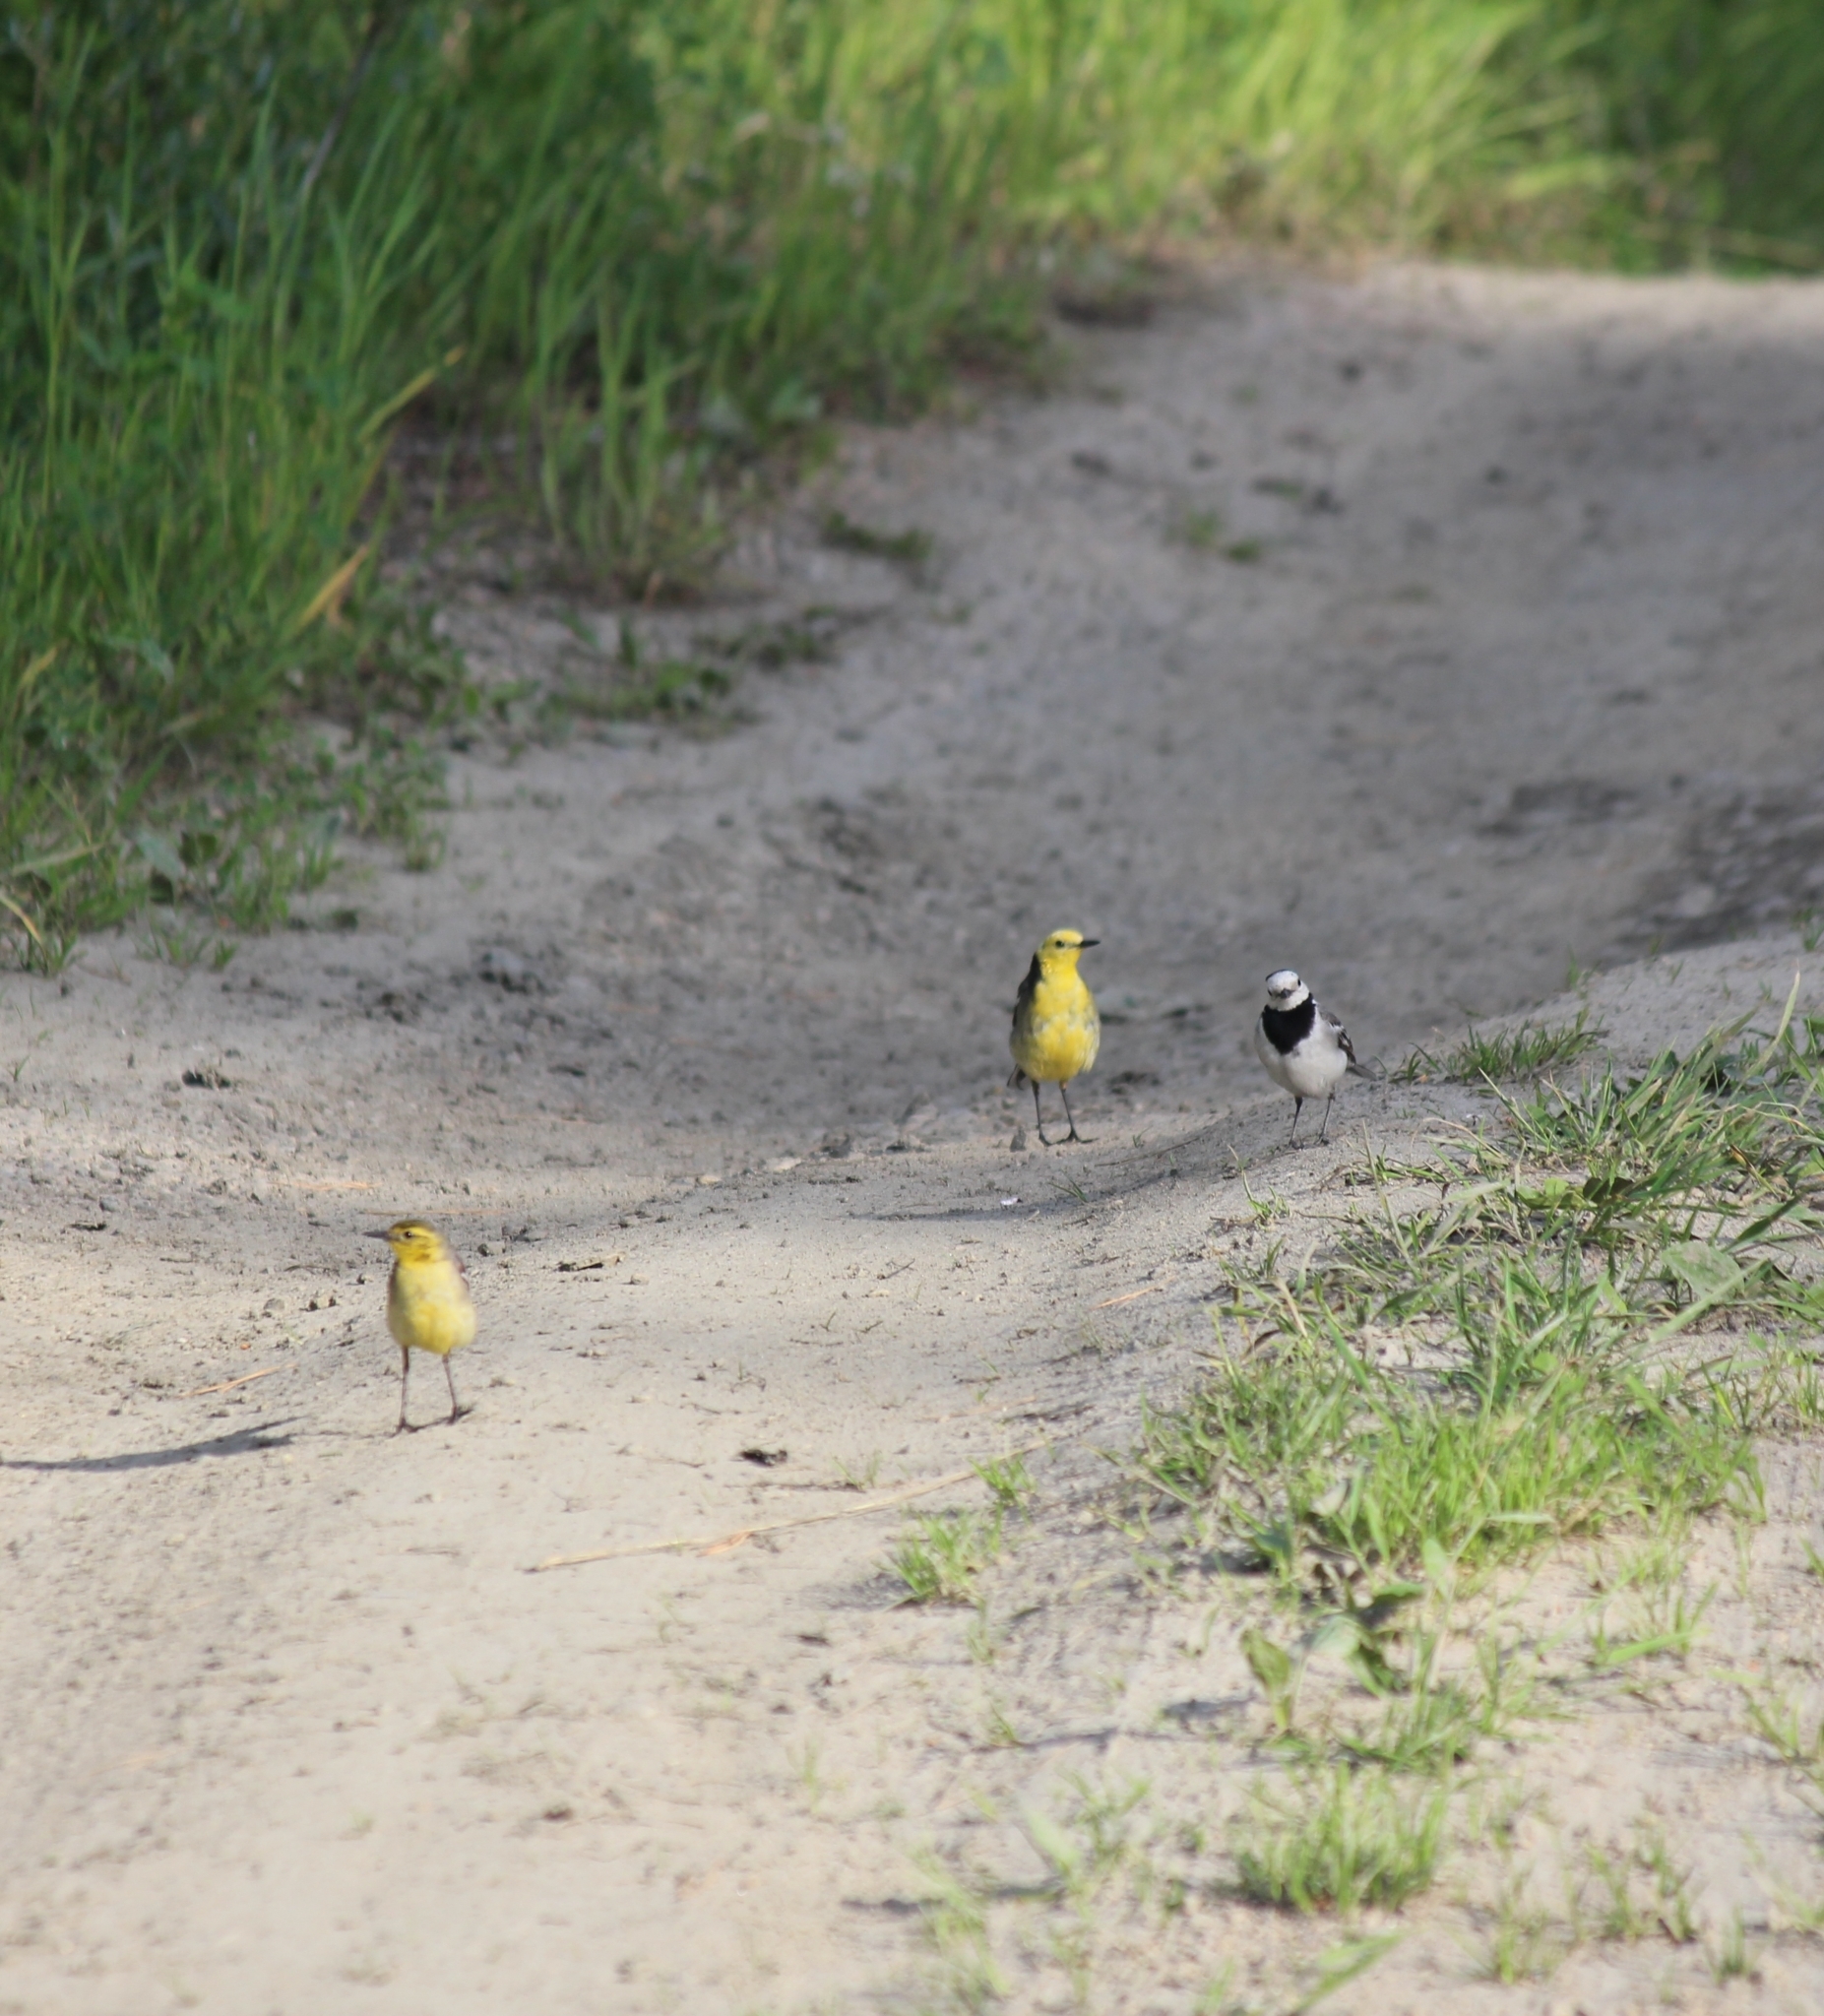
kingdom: Animalia
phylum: Chordata
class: Aves
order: Passeriformes
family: Motacillidae
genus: Motacilla
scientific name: Motacilla citreola
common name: Citrine wagtail
